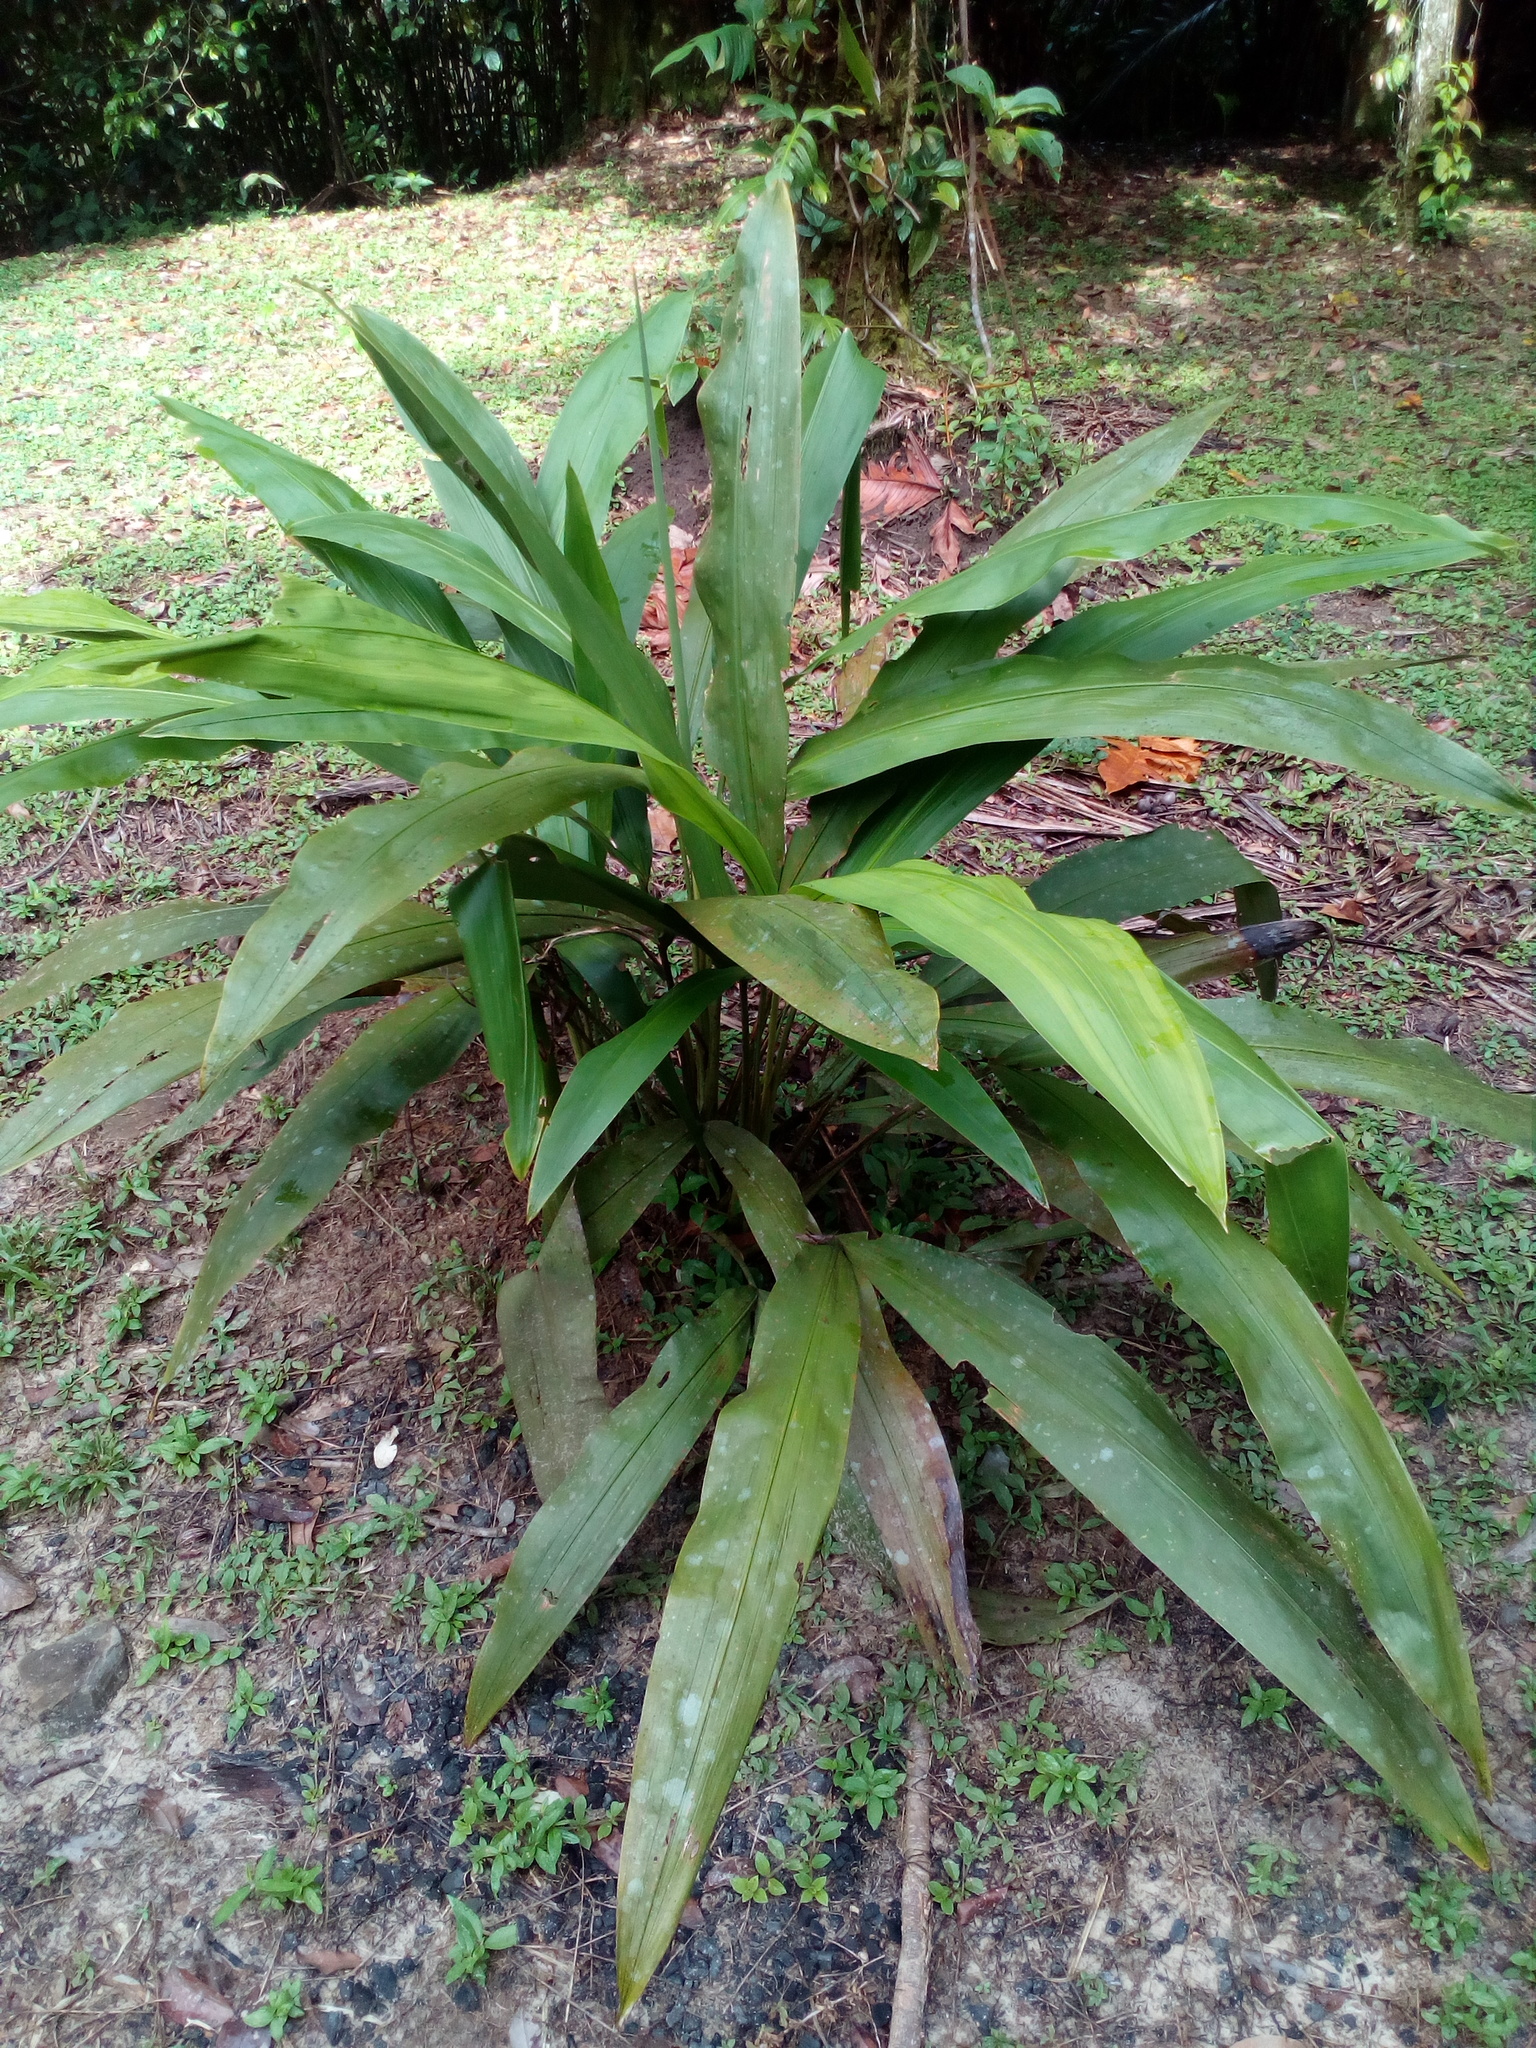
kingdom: Plantae
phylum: Tracheophyta
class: Liliopsida
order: Pandanales
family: Cyclanthaceae
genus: Cyclanthus
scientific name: Cyclanthus bipartitus
